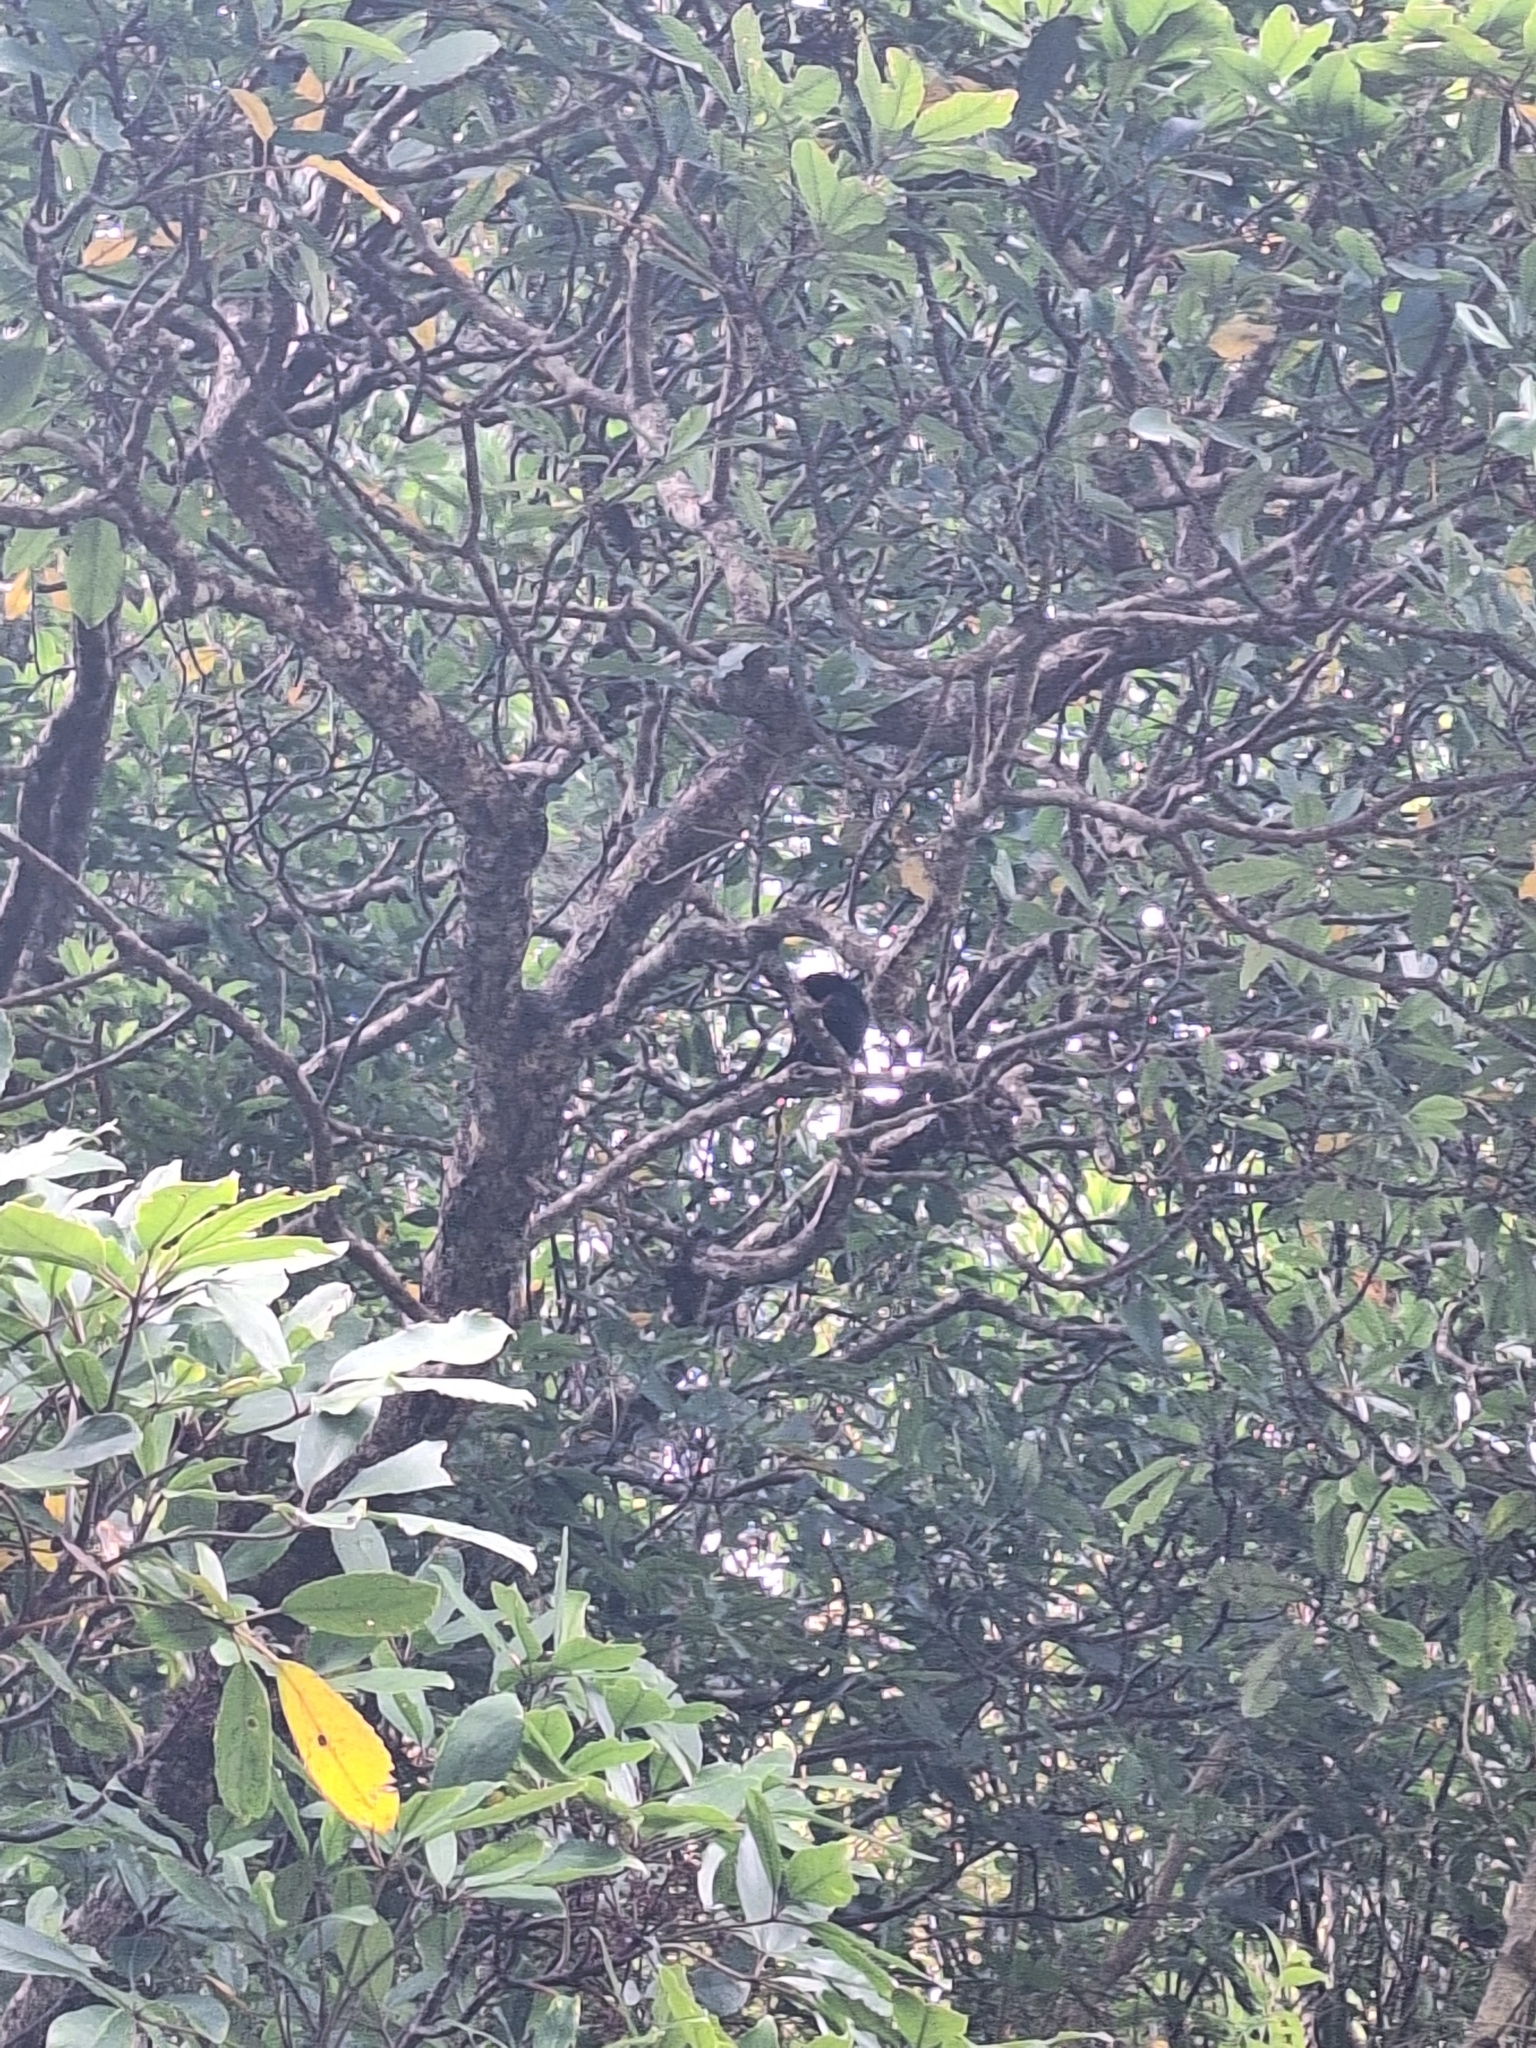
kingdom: Animalia
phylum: Chordata
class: Aves
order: Passeriformes
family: Callaeatidae
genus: Philesturnus
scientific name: Philesturnus carunculatus
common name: South island saddleback
